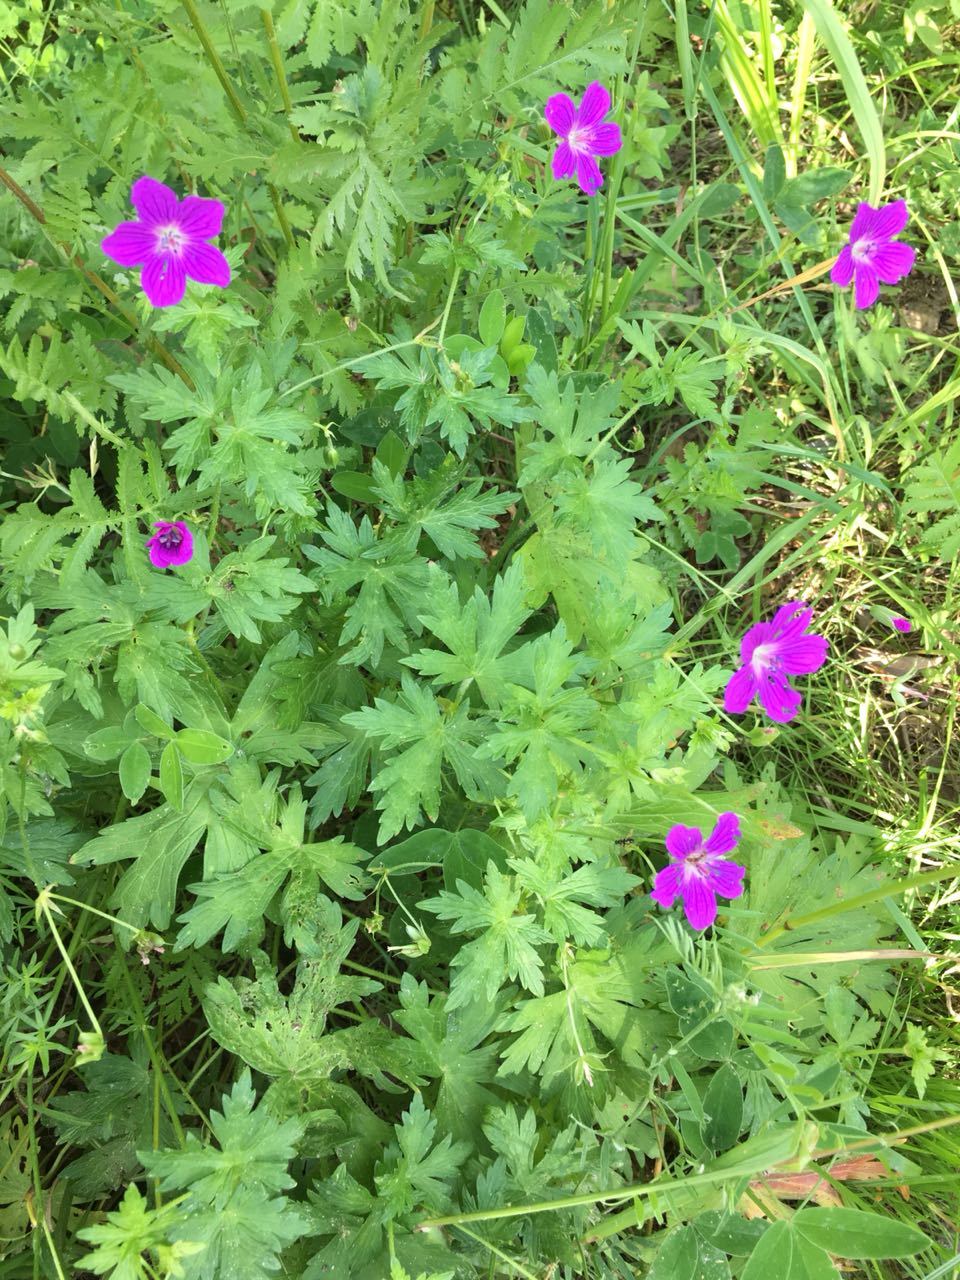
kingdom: Plantae
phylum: Tracheophyta
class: Magnoliopsida
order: Geraniales
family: Geraniaceae
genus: Geranium
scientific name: Geranium palustre
